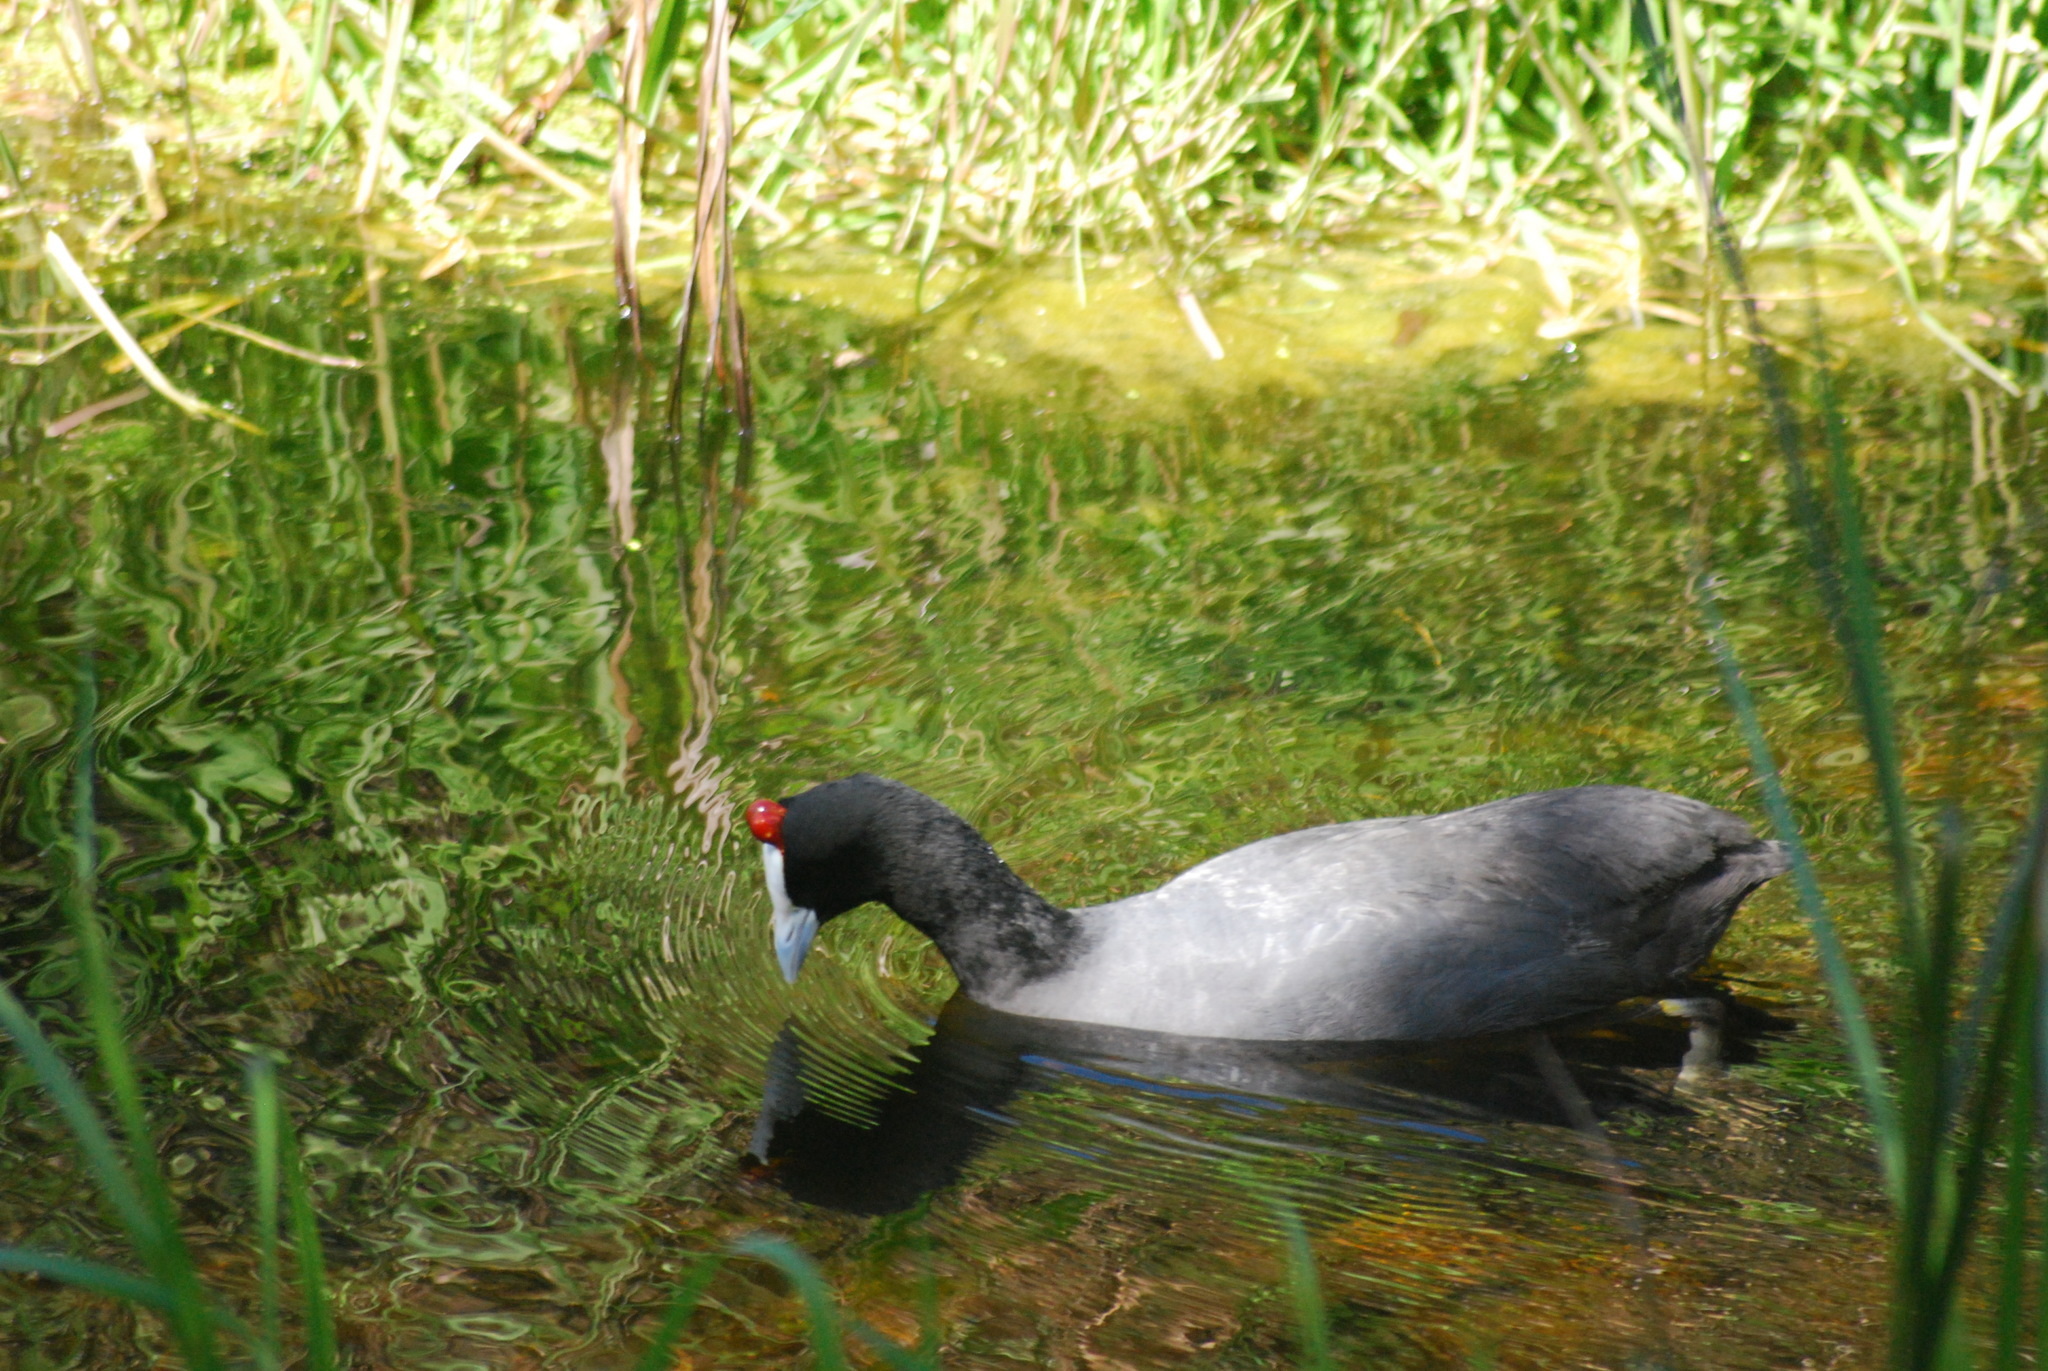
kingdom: Animalia
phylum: Chordata
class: Aves
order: Gruiformes
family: Rallidae
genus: Fulica
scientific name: Fulica cristata
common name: Red-knobbed coot
